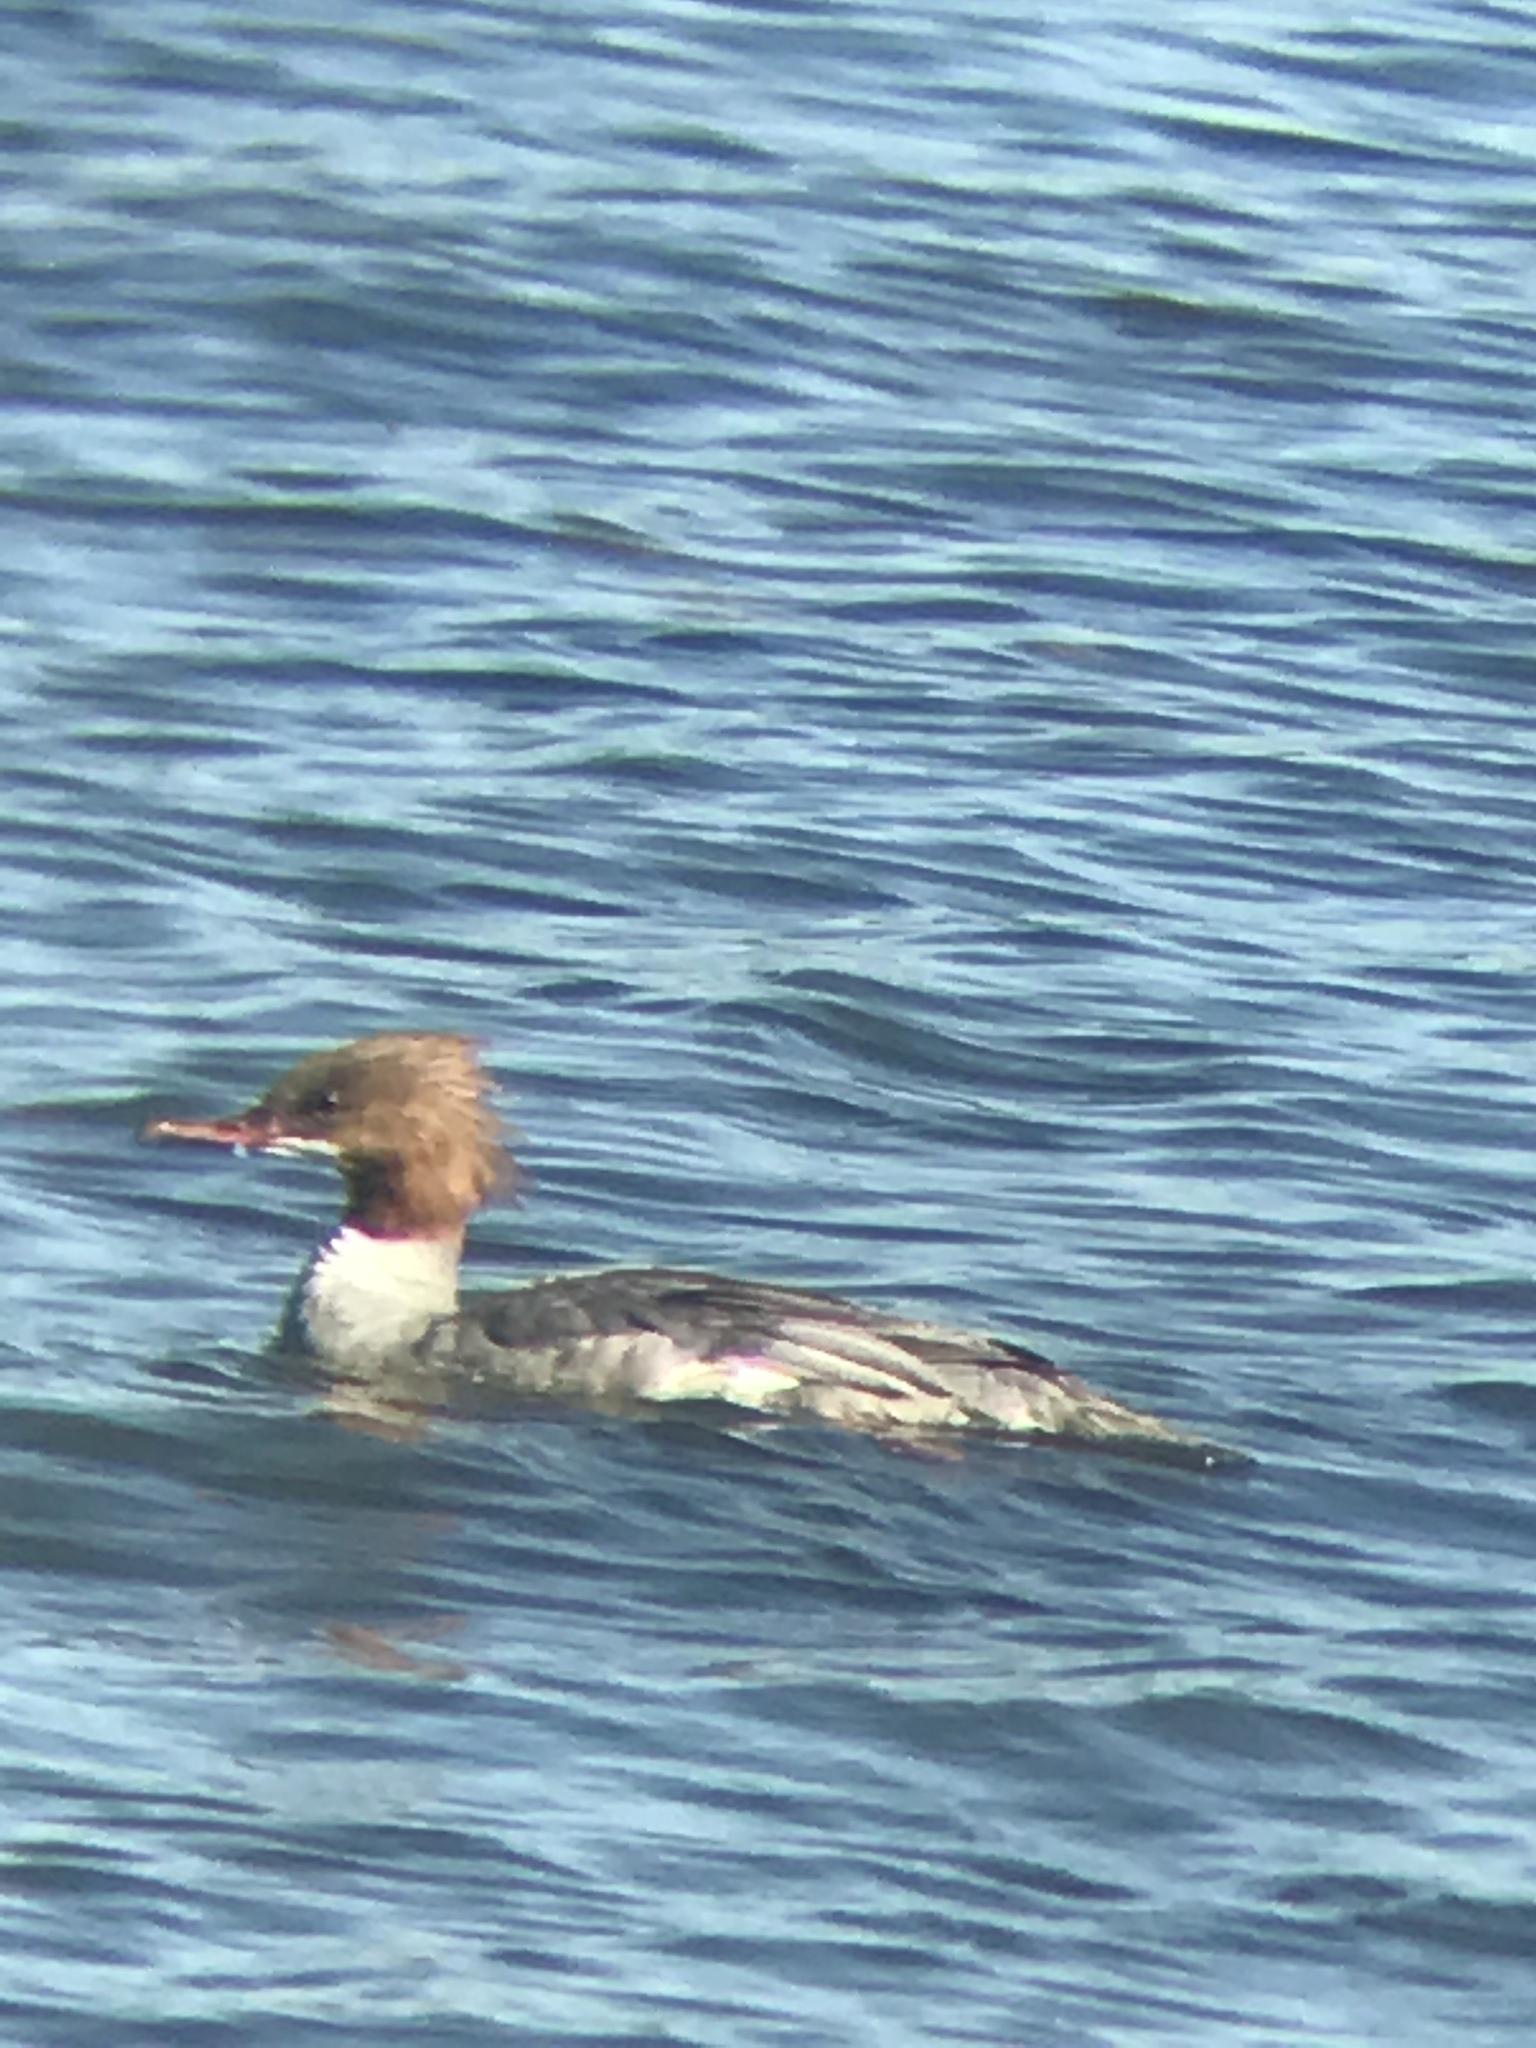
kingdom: Animalia
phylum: Chordata
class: Aves
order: Anseriformes
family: Anatidae
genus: Mergus
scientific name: Mergus merganser
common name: Common merganser
